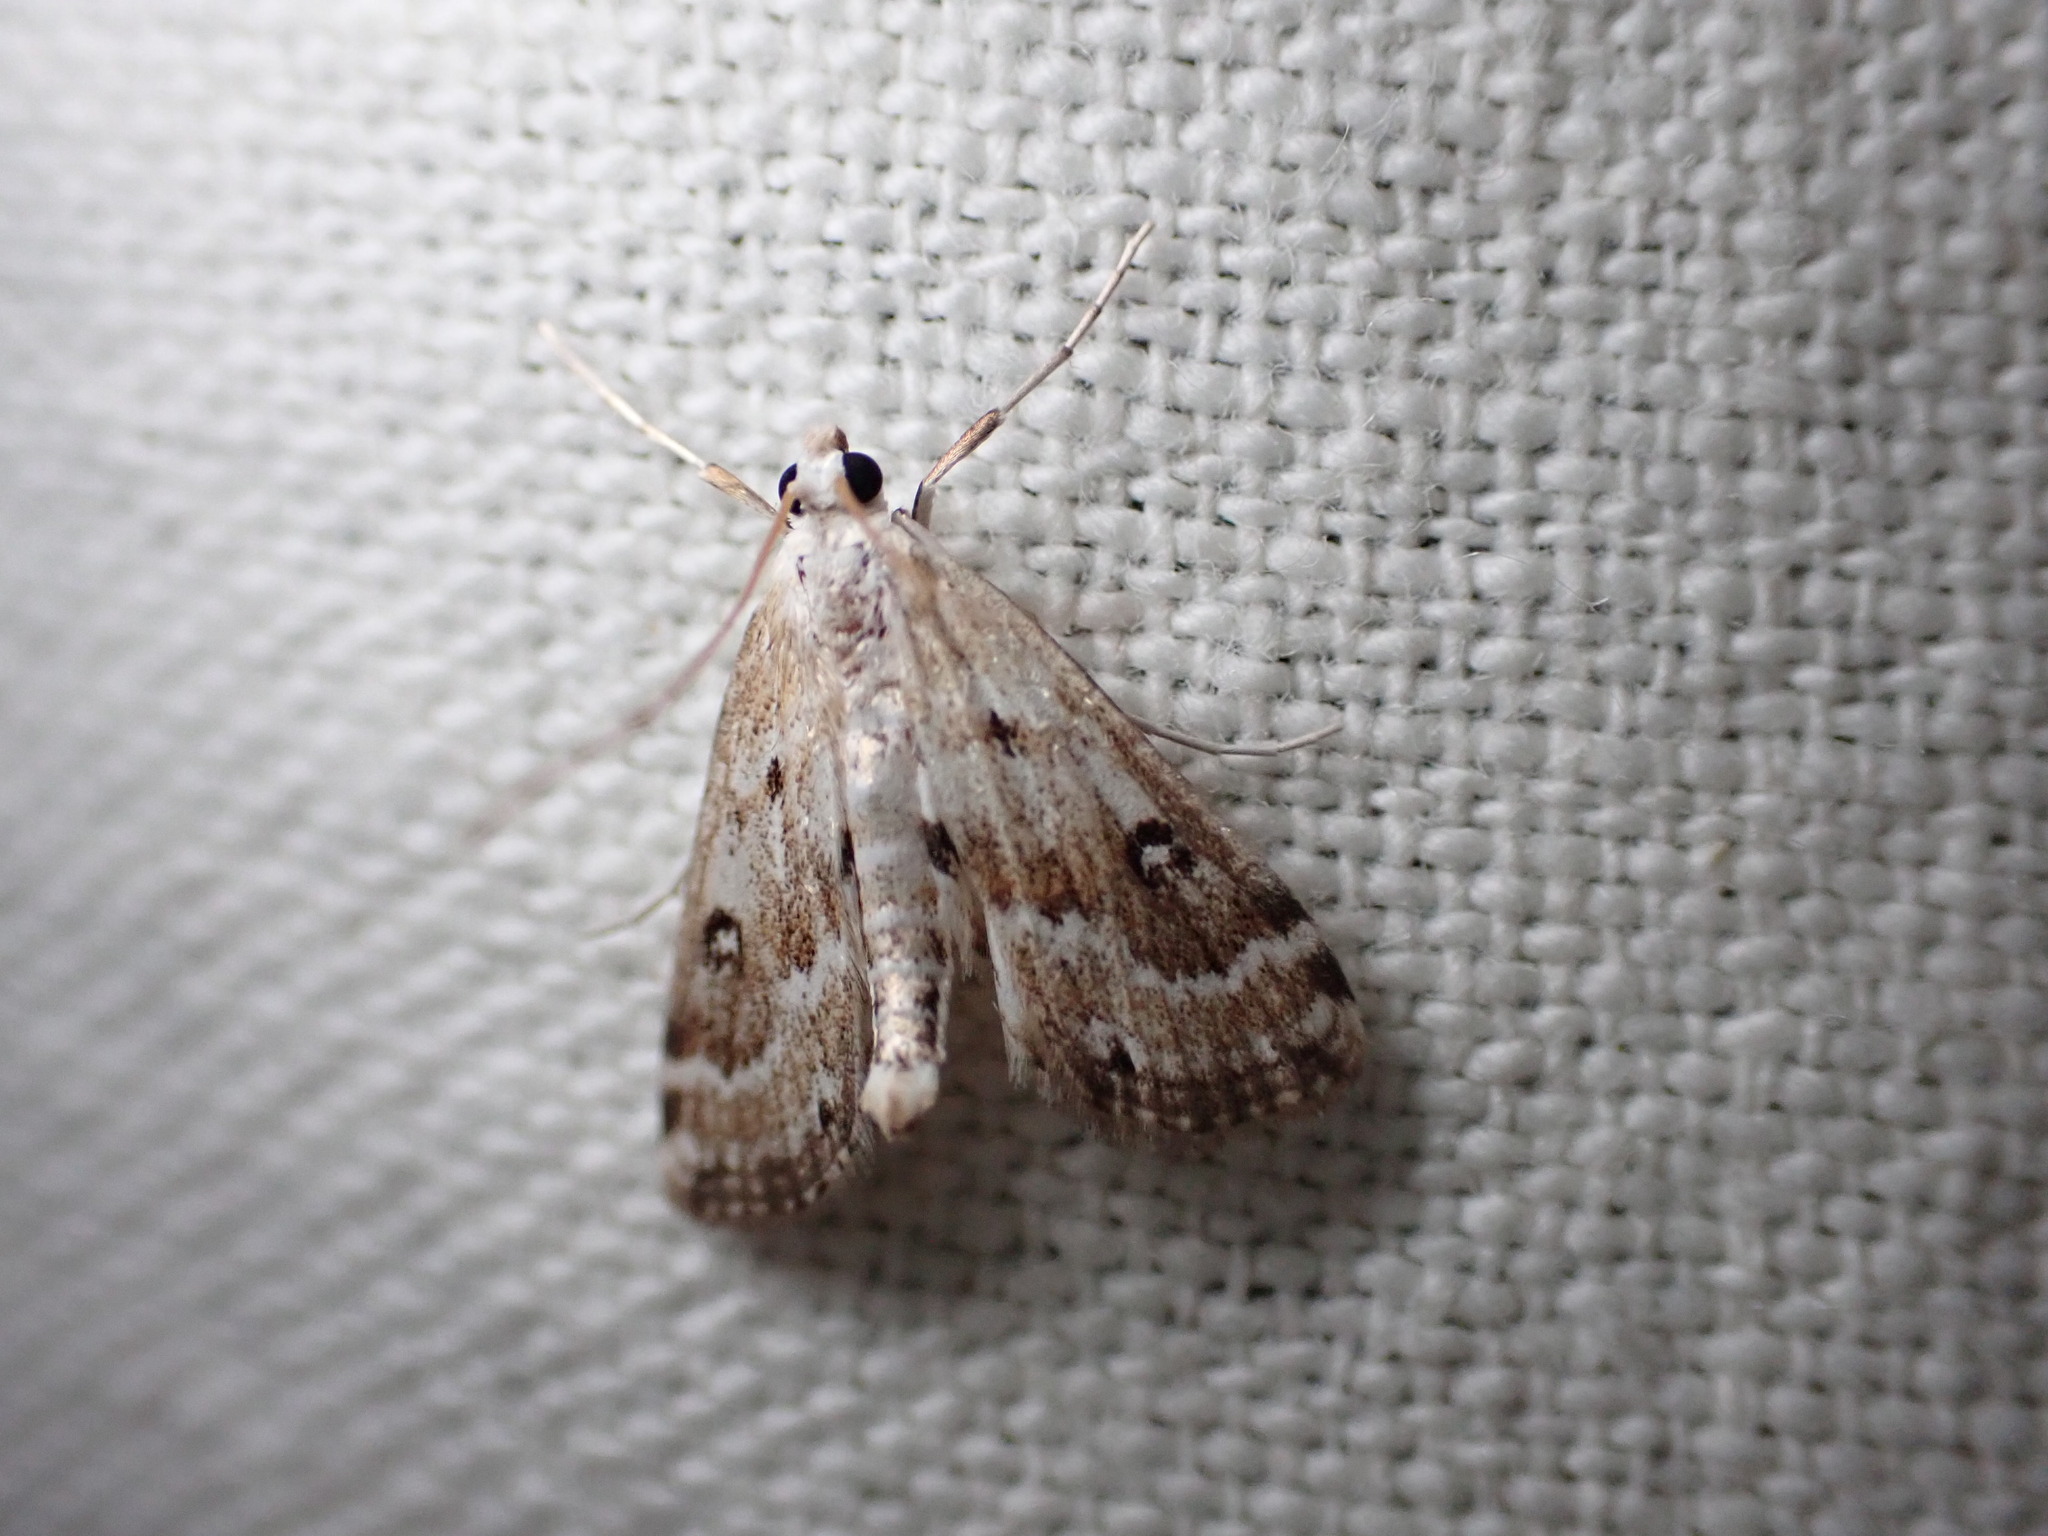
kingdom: Animalia
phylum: Arthropoda
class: Insecta
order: Lepidoptera
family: Crambidae
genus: Parapoynx
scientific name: Parapoynx stratiotata
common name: Ringed china-mark
